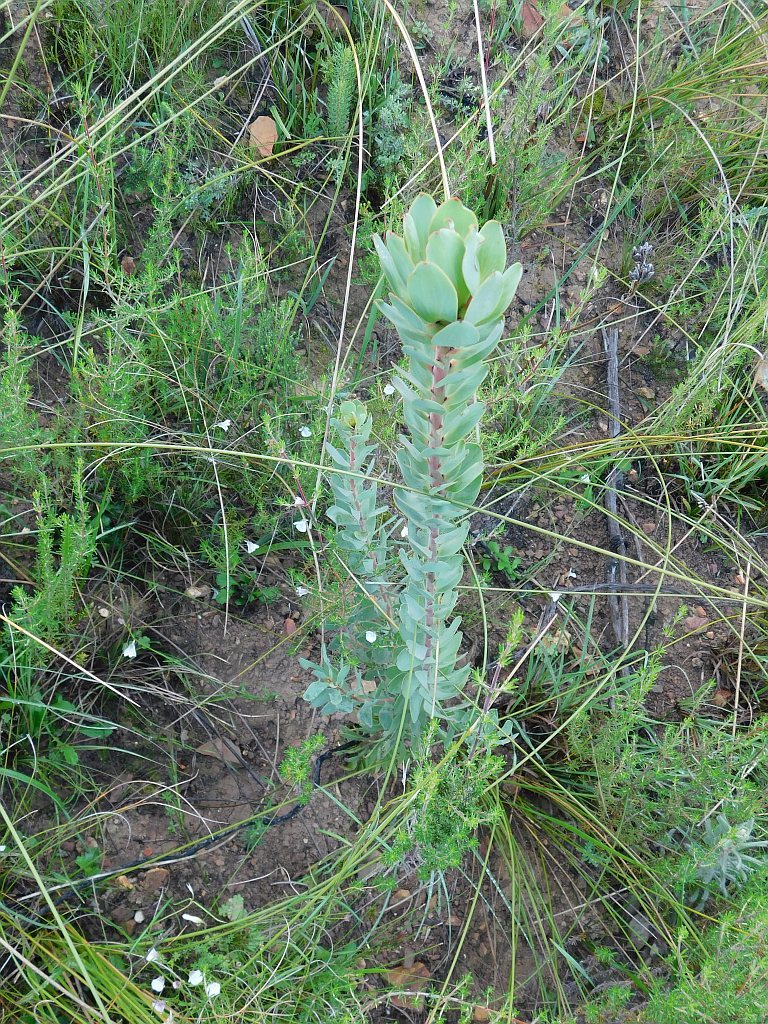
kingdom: Plantae
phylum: Tracheophyta
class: Magnoliopsida
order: Proteales
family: Proteaceae
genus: Leucadendron
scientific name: Leucadendron elimense
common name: Elim conebush
